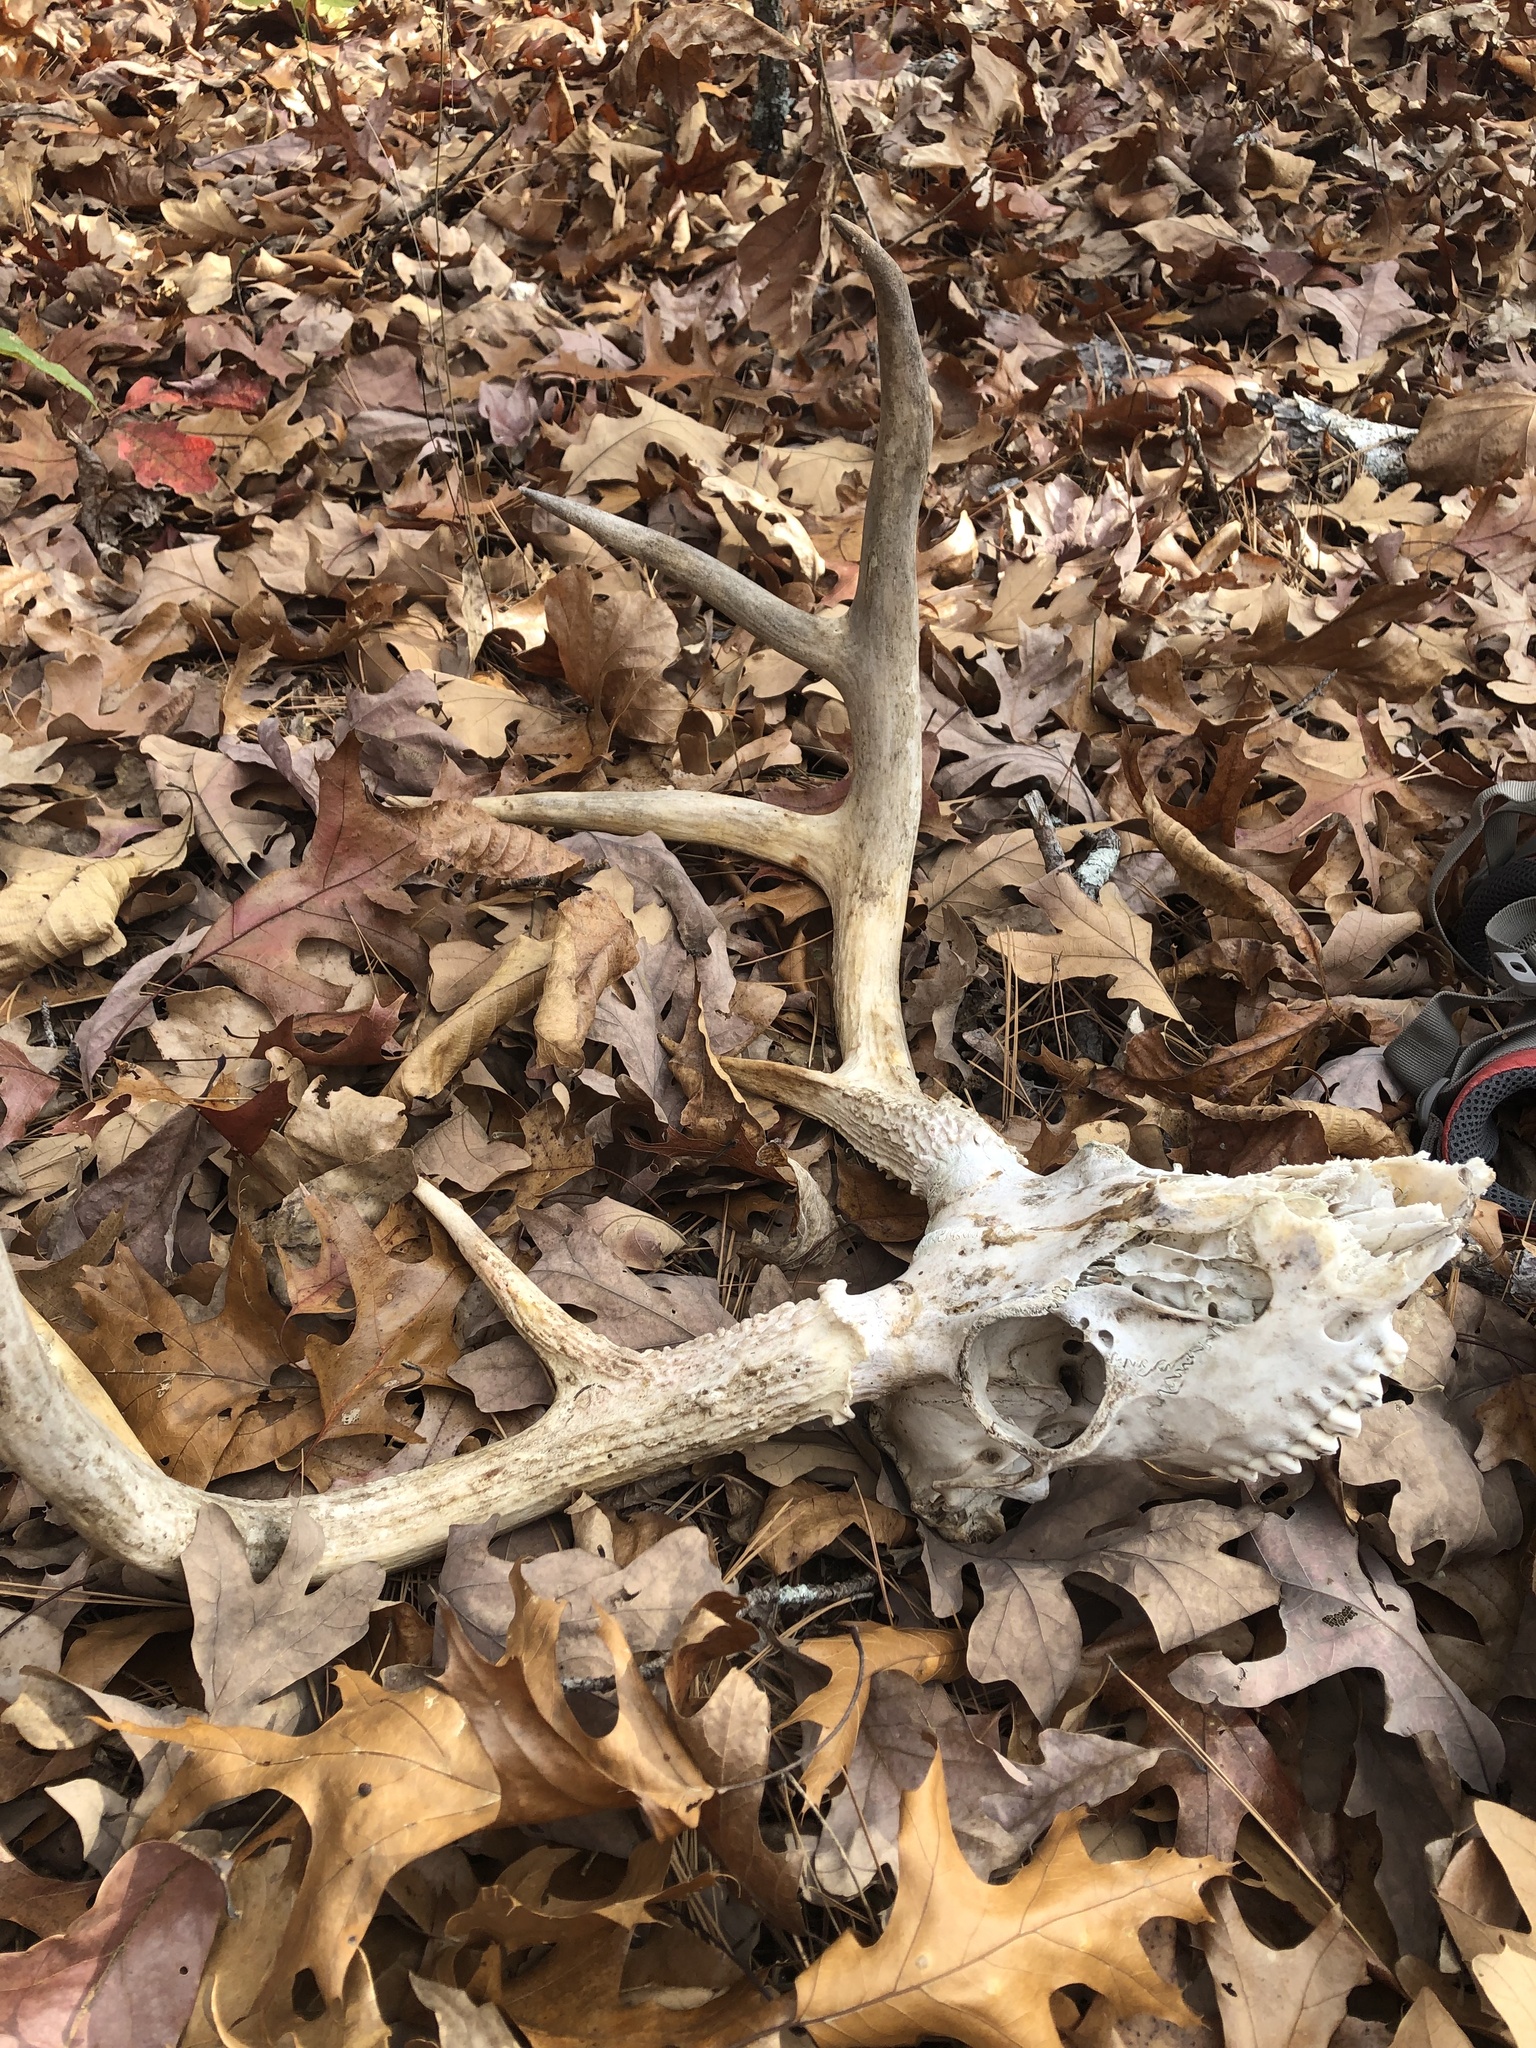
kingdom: Animalia
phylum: Chordata
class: Mammalia
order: Artiodactyla
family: Cervidae
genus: Odocoileus
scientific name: Odocoileus virginianus
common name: White-tailed deer
